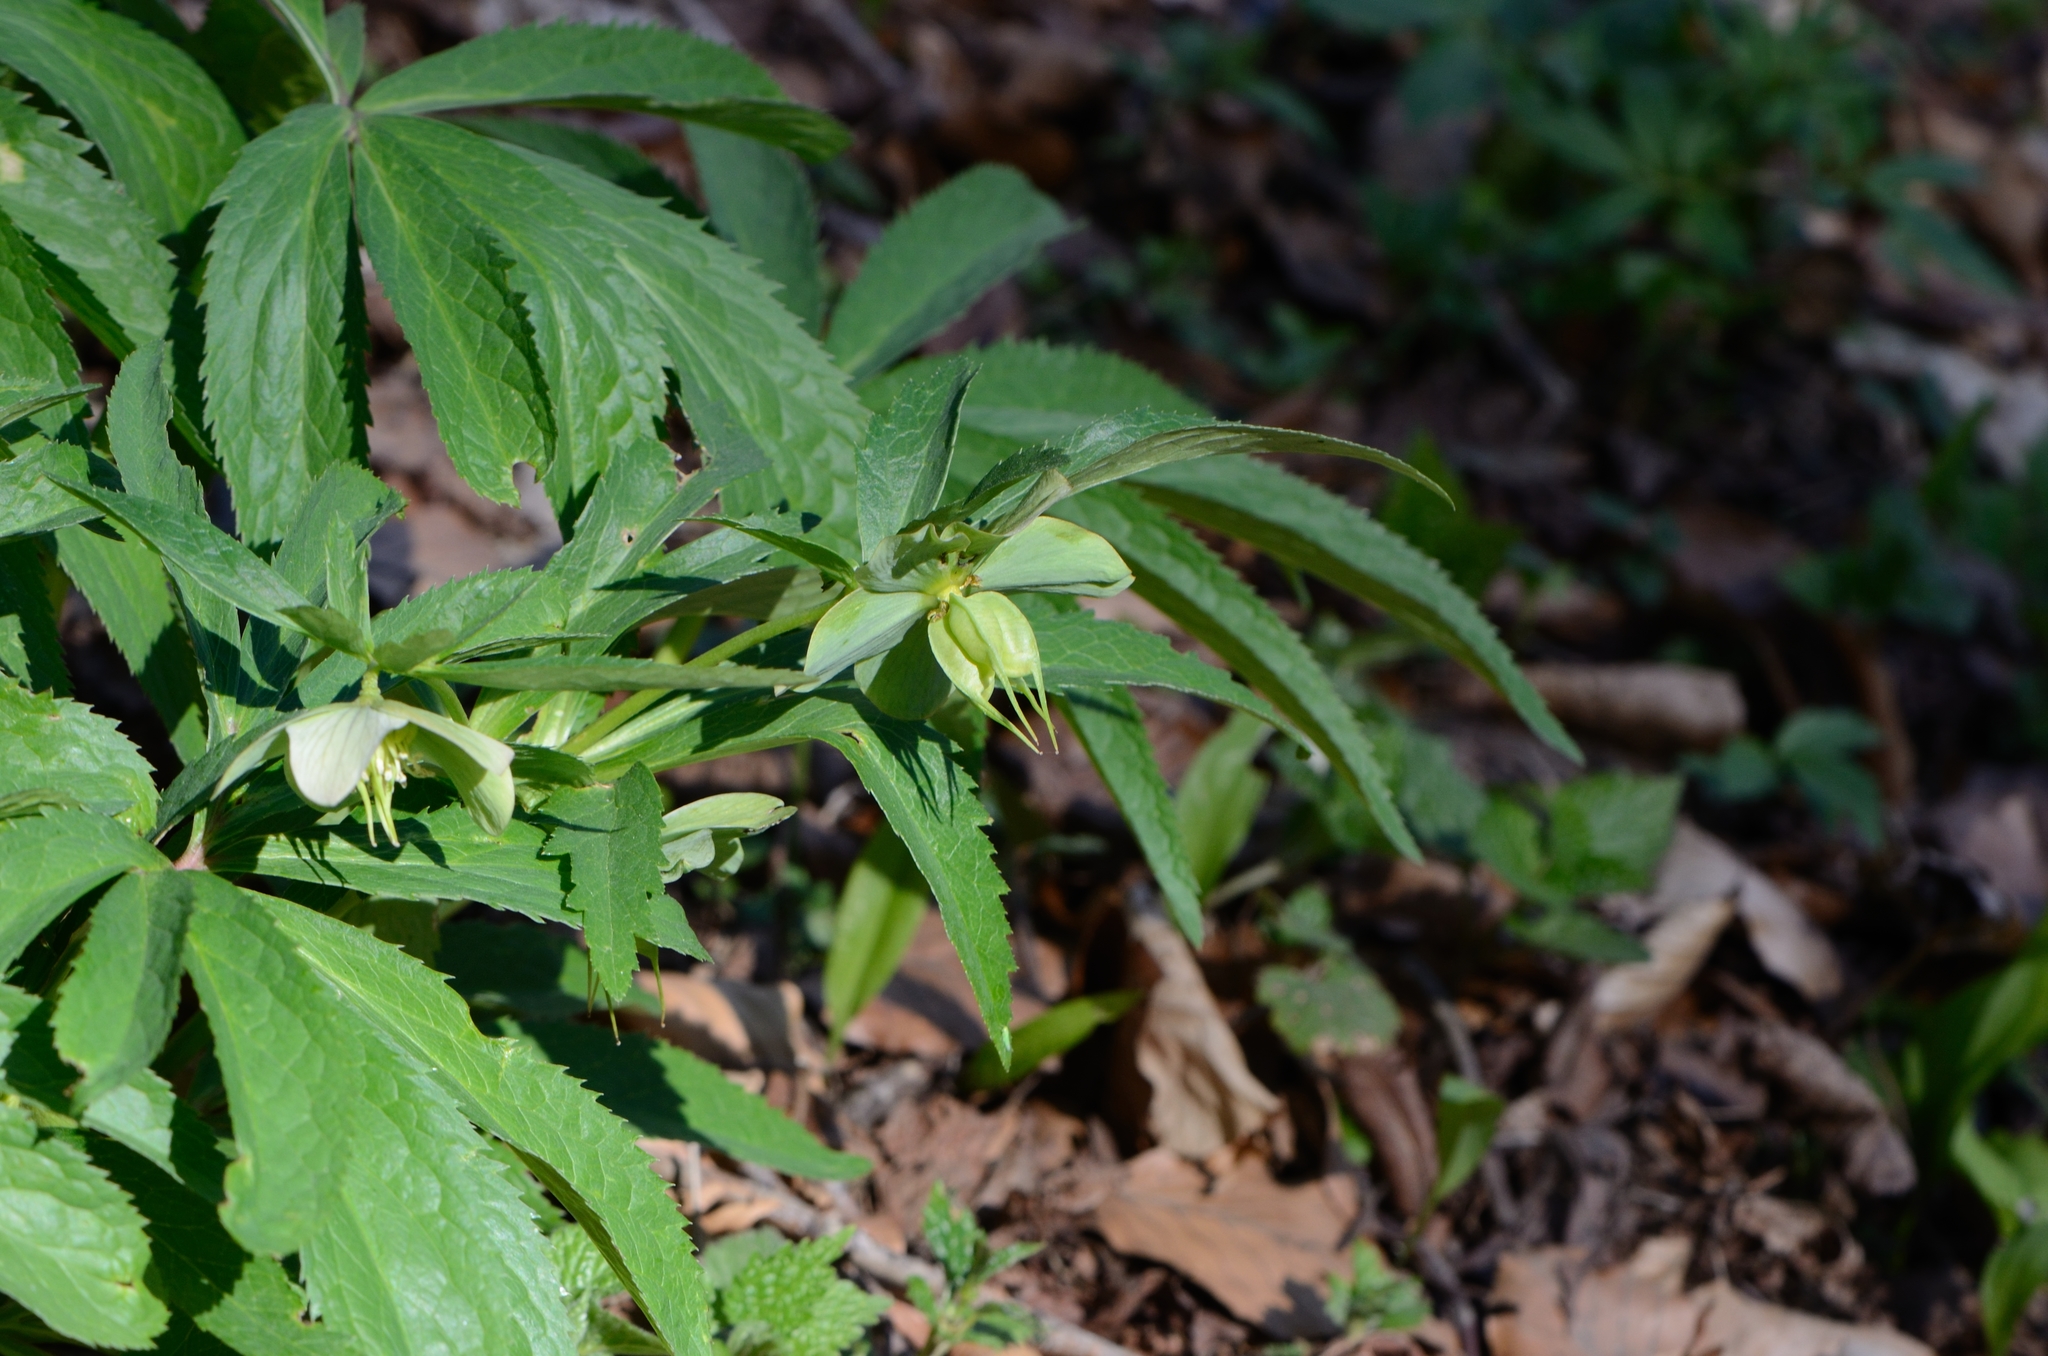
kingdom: Plantae
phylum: Tracheophyta
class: Magnoliopsida
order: Ranunculales
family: Ranunculaceae
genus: Helleborus
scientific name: Helleborus viridis
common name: Green hellebore
